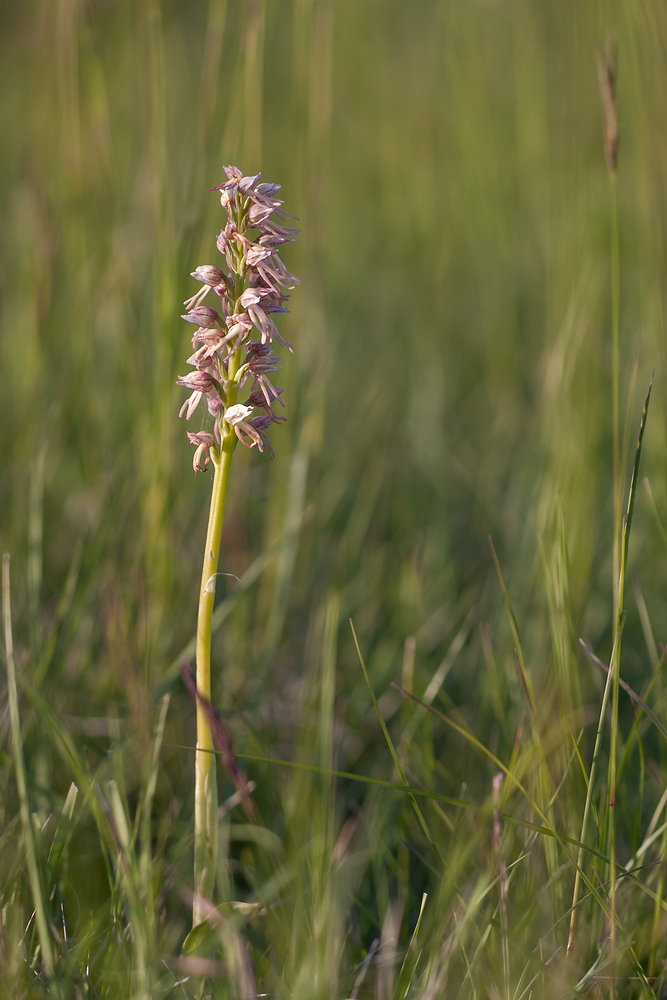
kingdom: Plantae
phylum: Tracheophyta
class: Liliopsida
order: Asparagales
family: Orchidaceae
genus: Orchis
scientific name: Orchis bergonii
